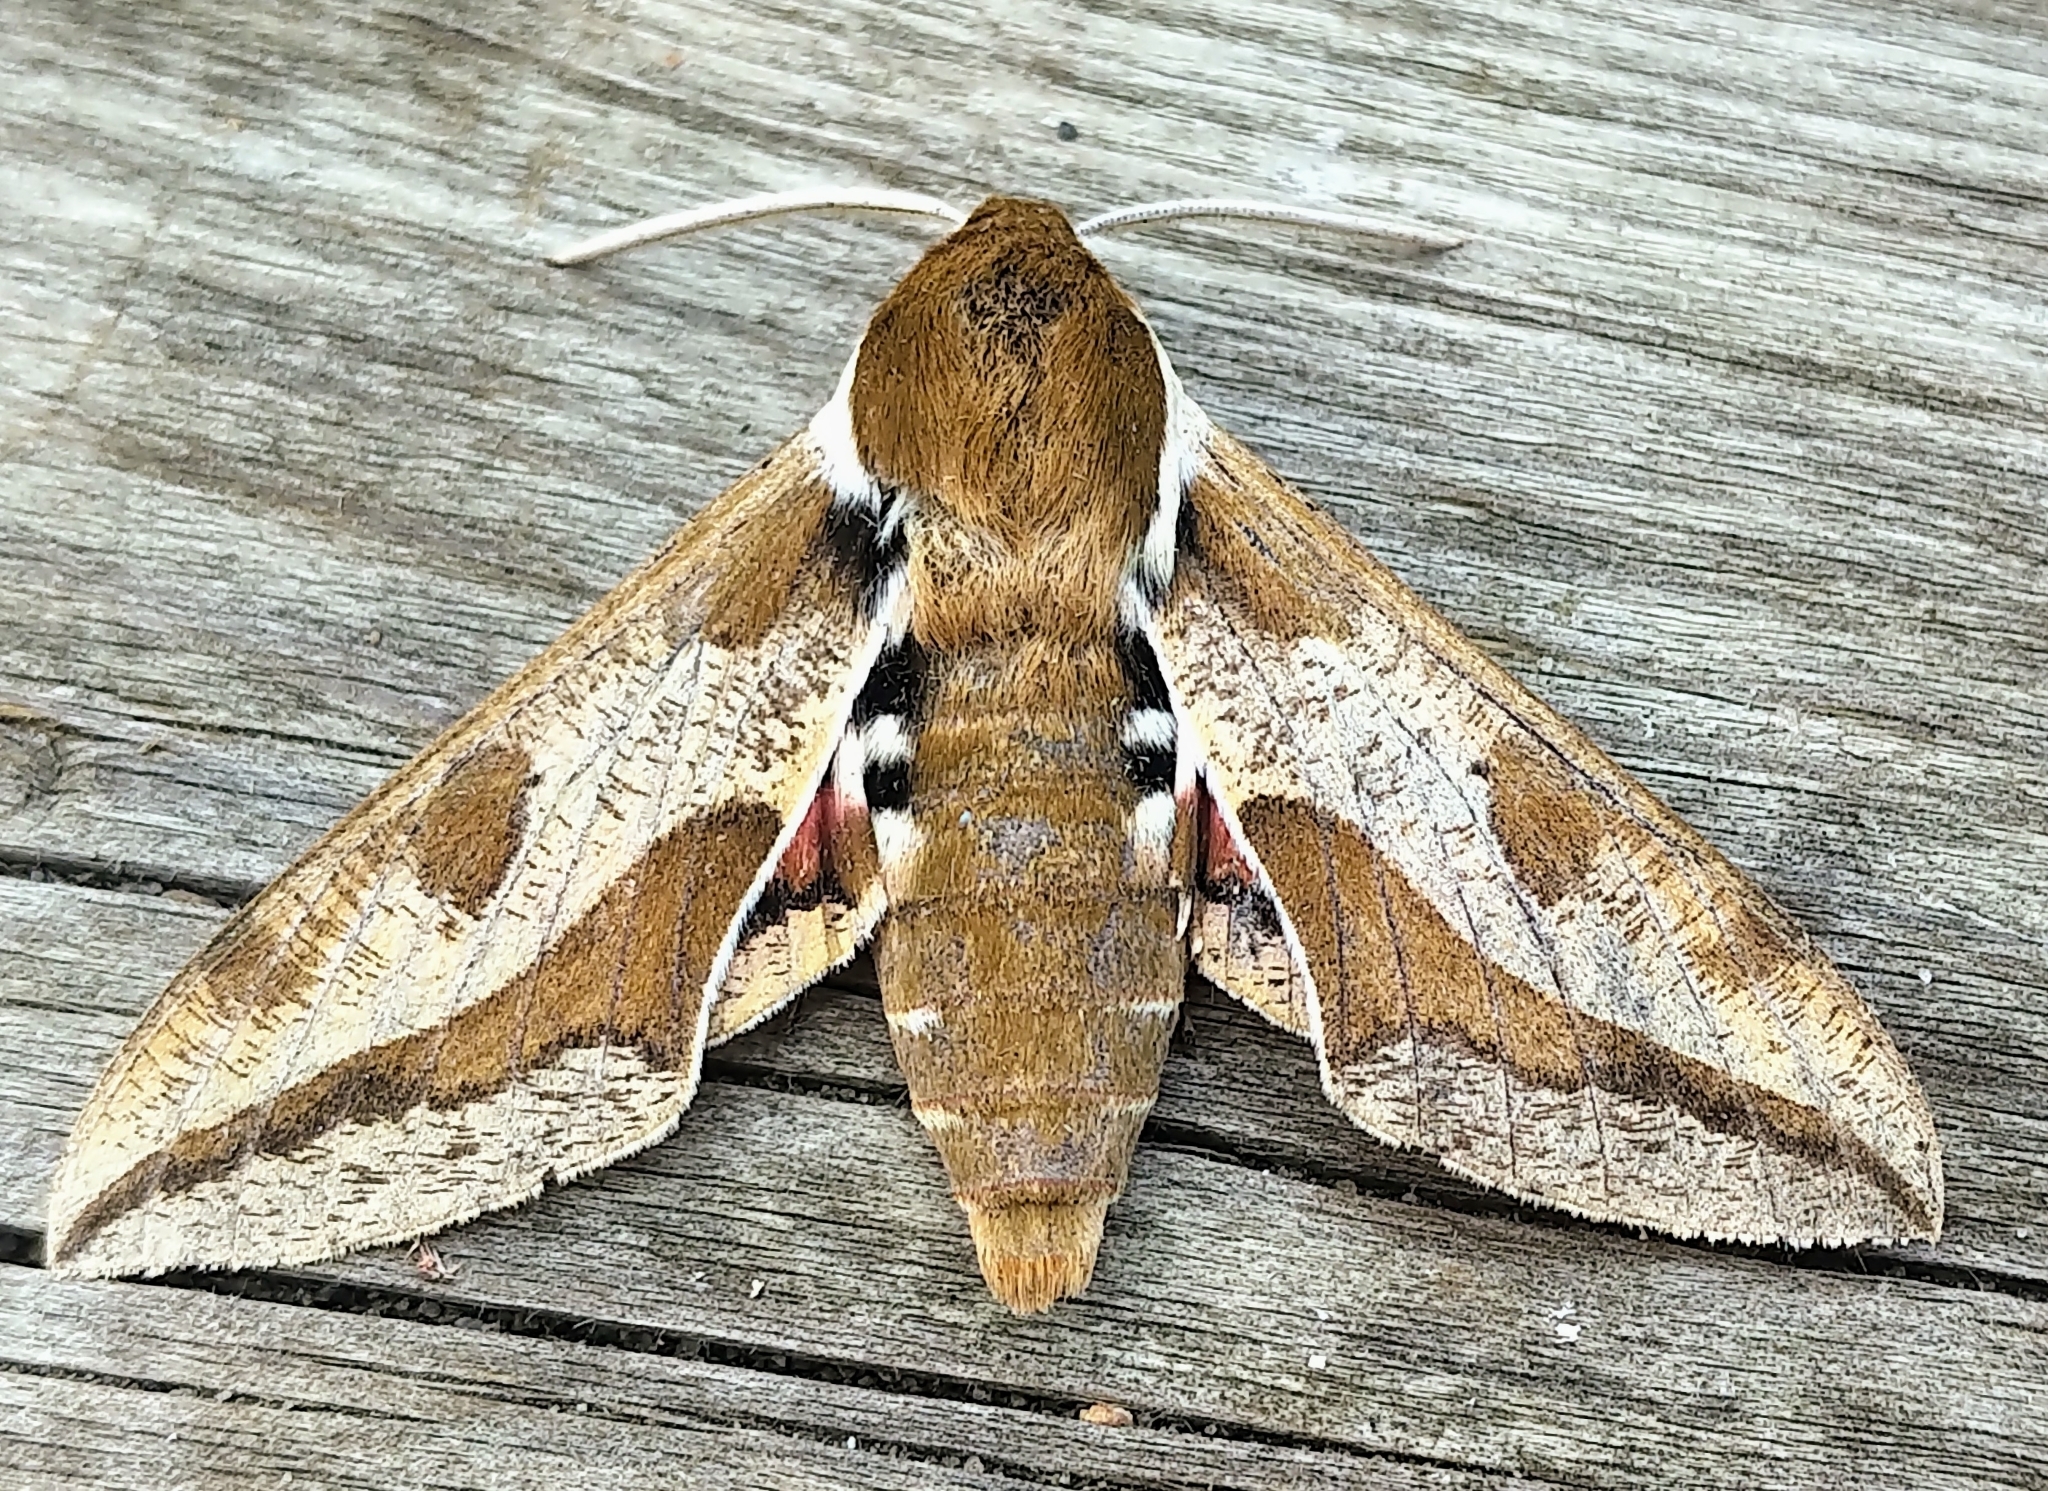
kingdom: Animalia
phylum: Arthropoda
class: Insecta
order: Lepidoptera
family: Sphingidae
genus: Hyles
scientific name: Hyles euphorbiae
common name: Spurge hawk-moth
